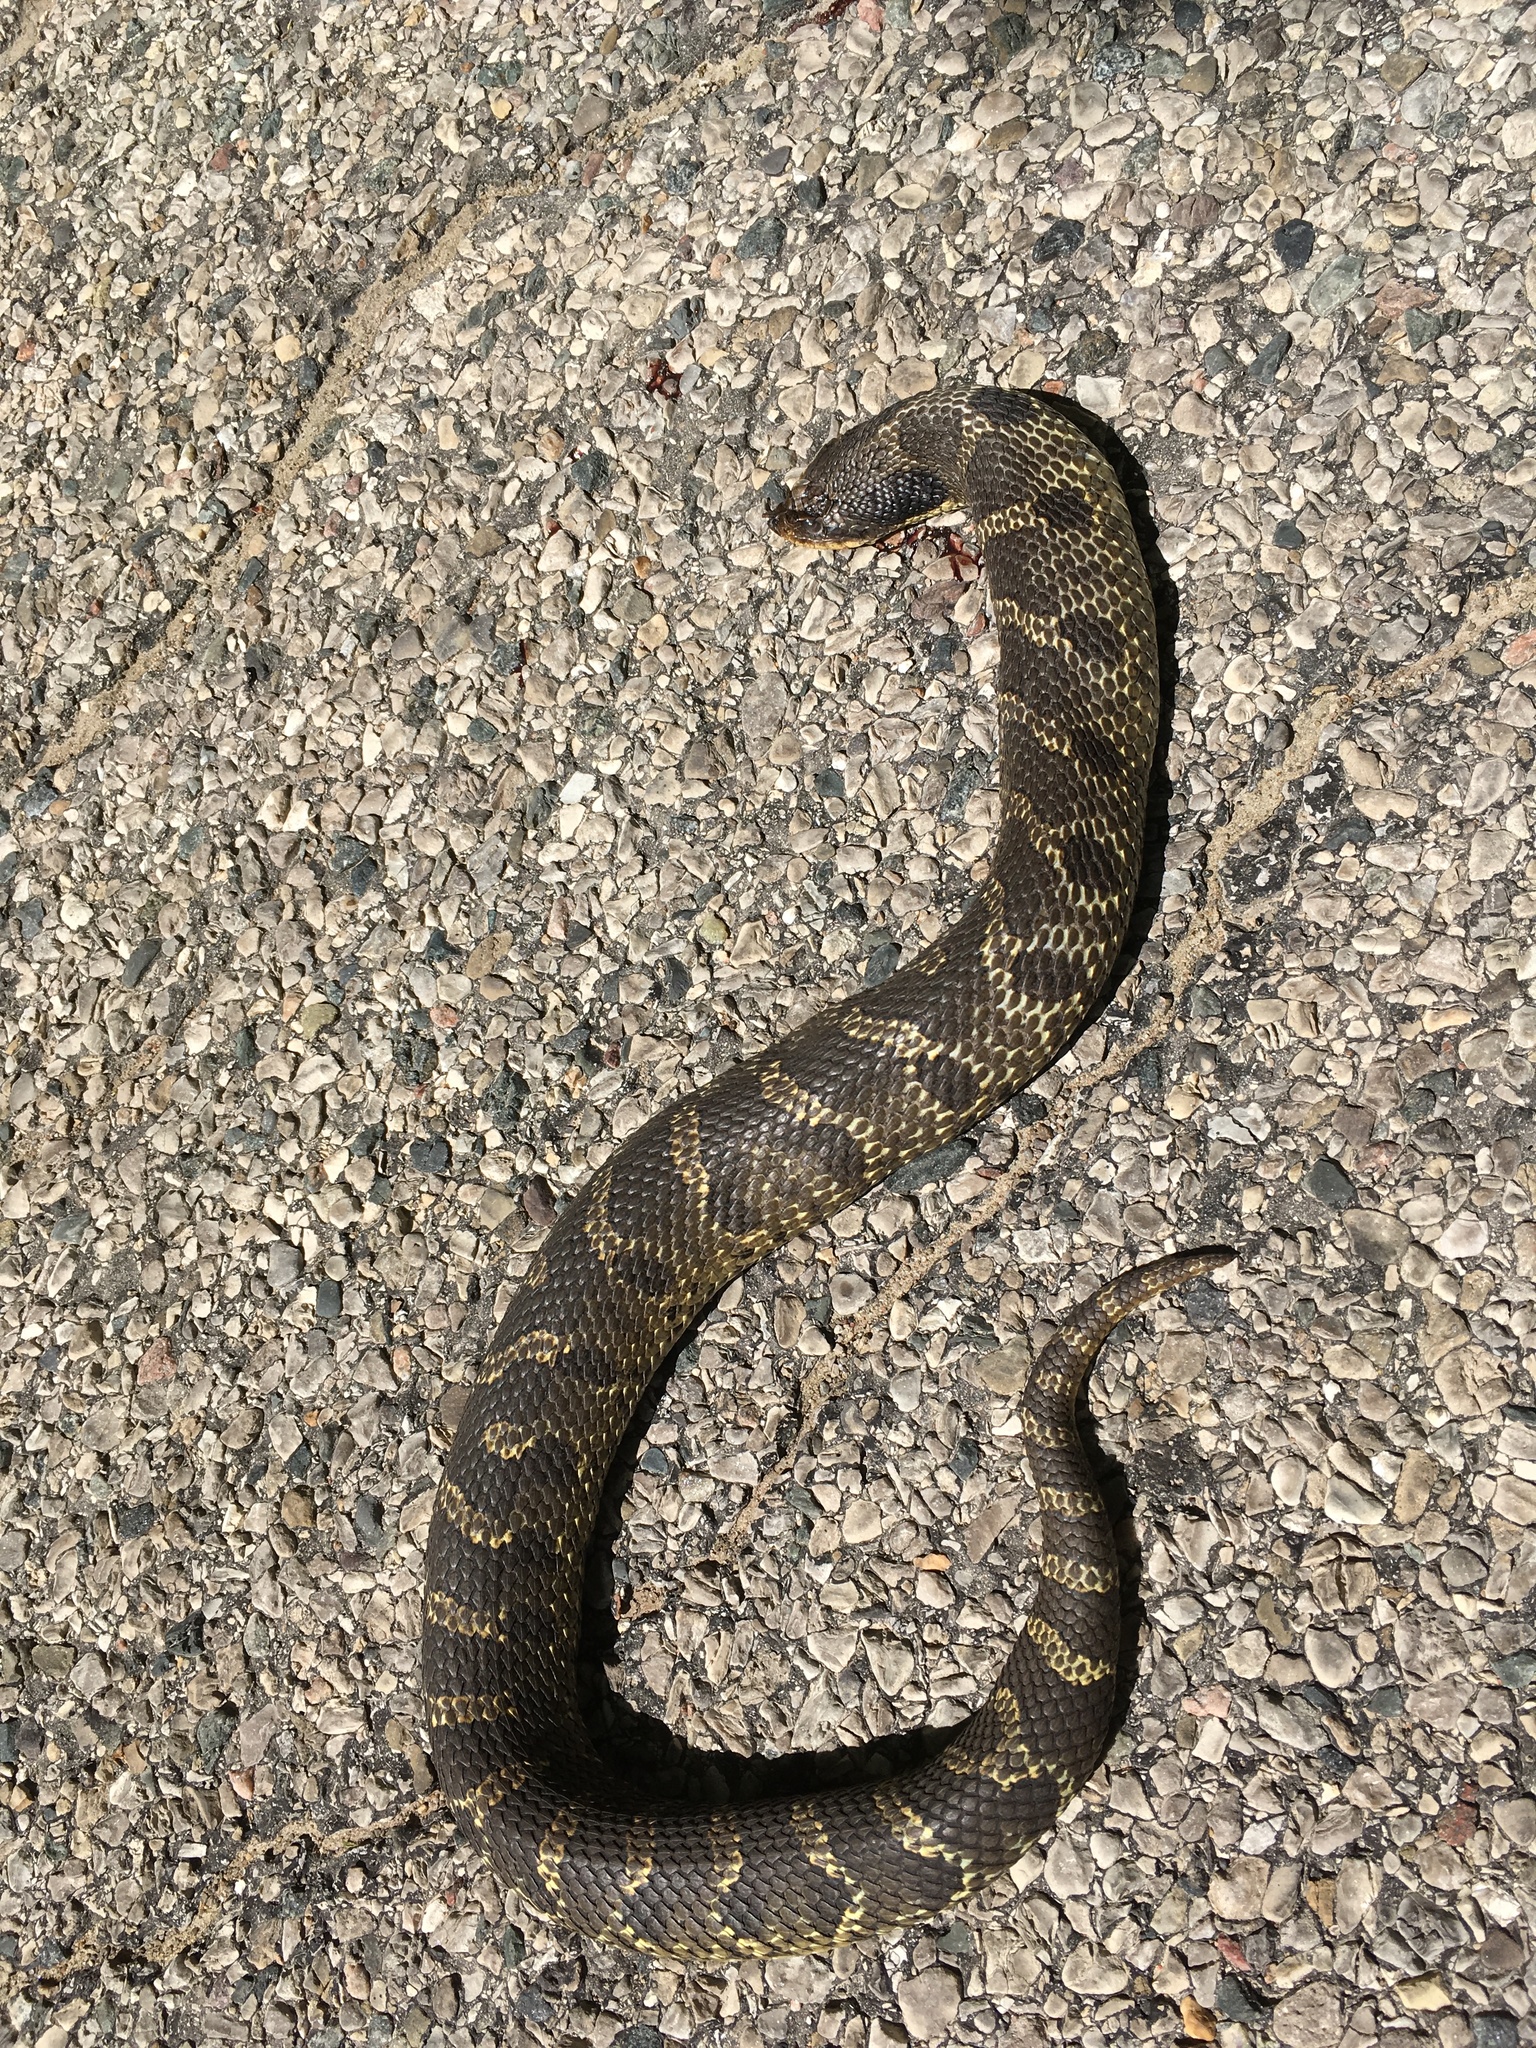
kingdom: Animalia
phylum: Chordata
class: Squamata
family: Colubridae
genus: Heterodon
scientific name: Heterodon platirhinos
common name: Eastern hognose snake
